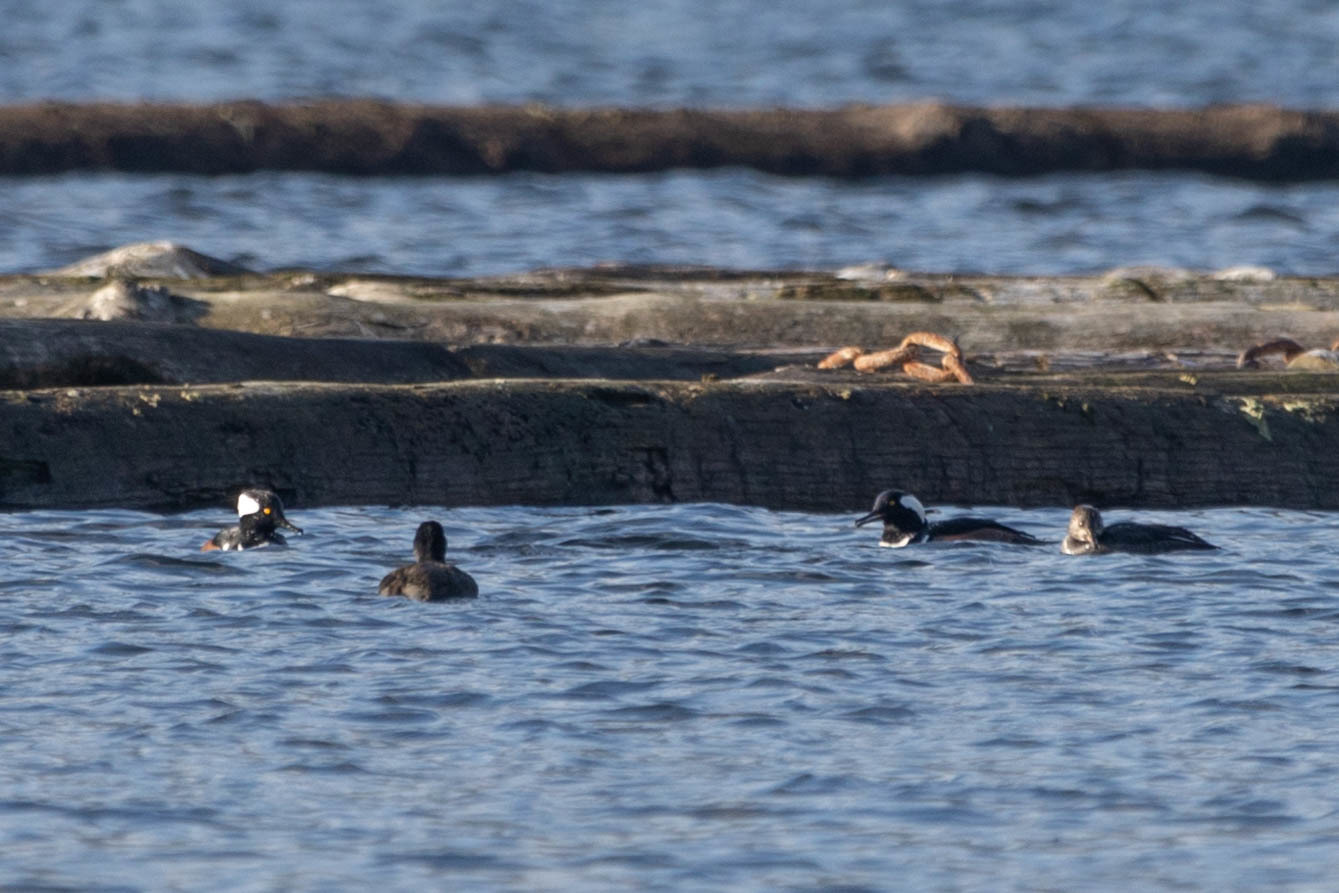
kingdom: Animalia
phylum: Chordata
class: Aves
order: Anseriformes
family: Anatidae
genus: Lophodytes
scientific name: Lophodytes cucullatus
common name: Hooded merganser
